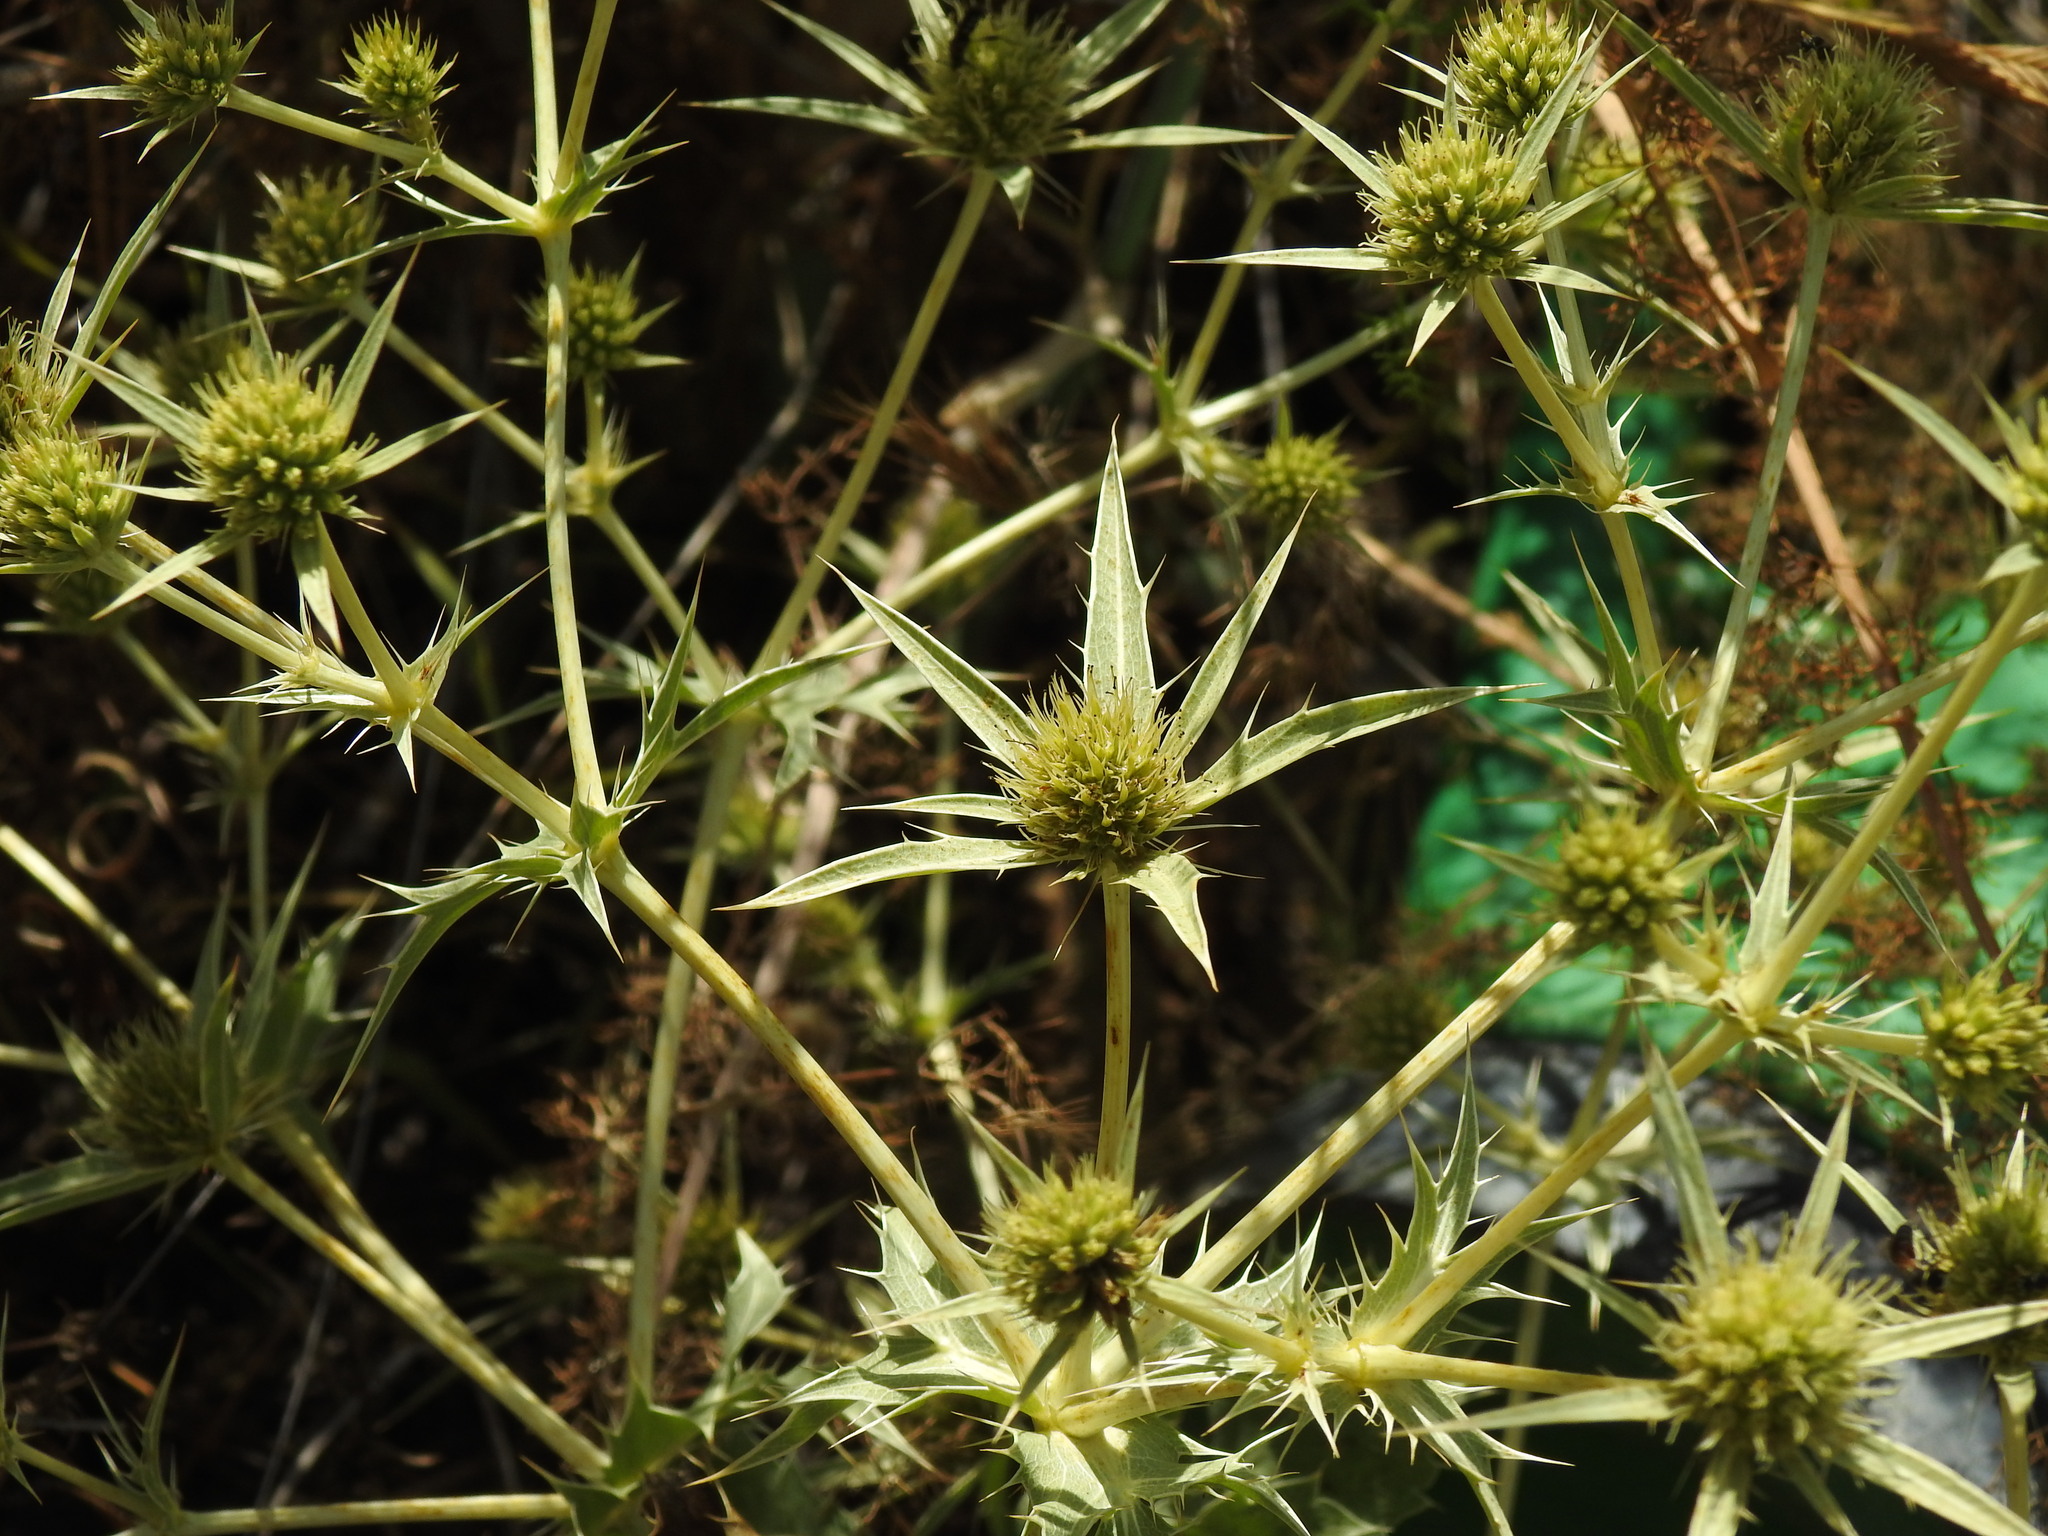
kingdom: Plantae
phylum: Tracheophyta
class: Magnoliopsida
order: Apiales
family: Apiaceae
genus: Eryngium
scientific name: Eryngium campestre
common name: Field eryngo
